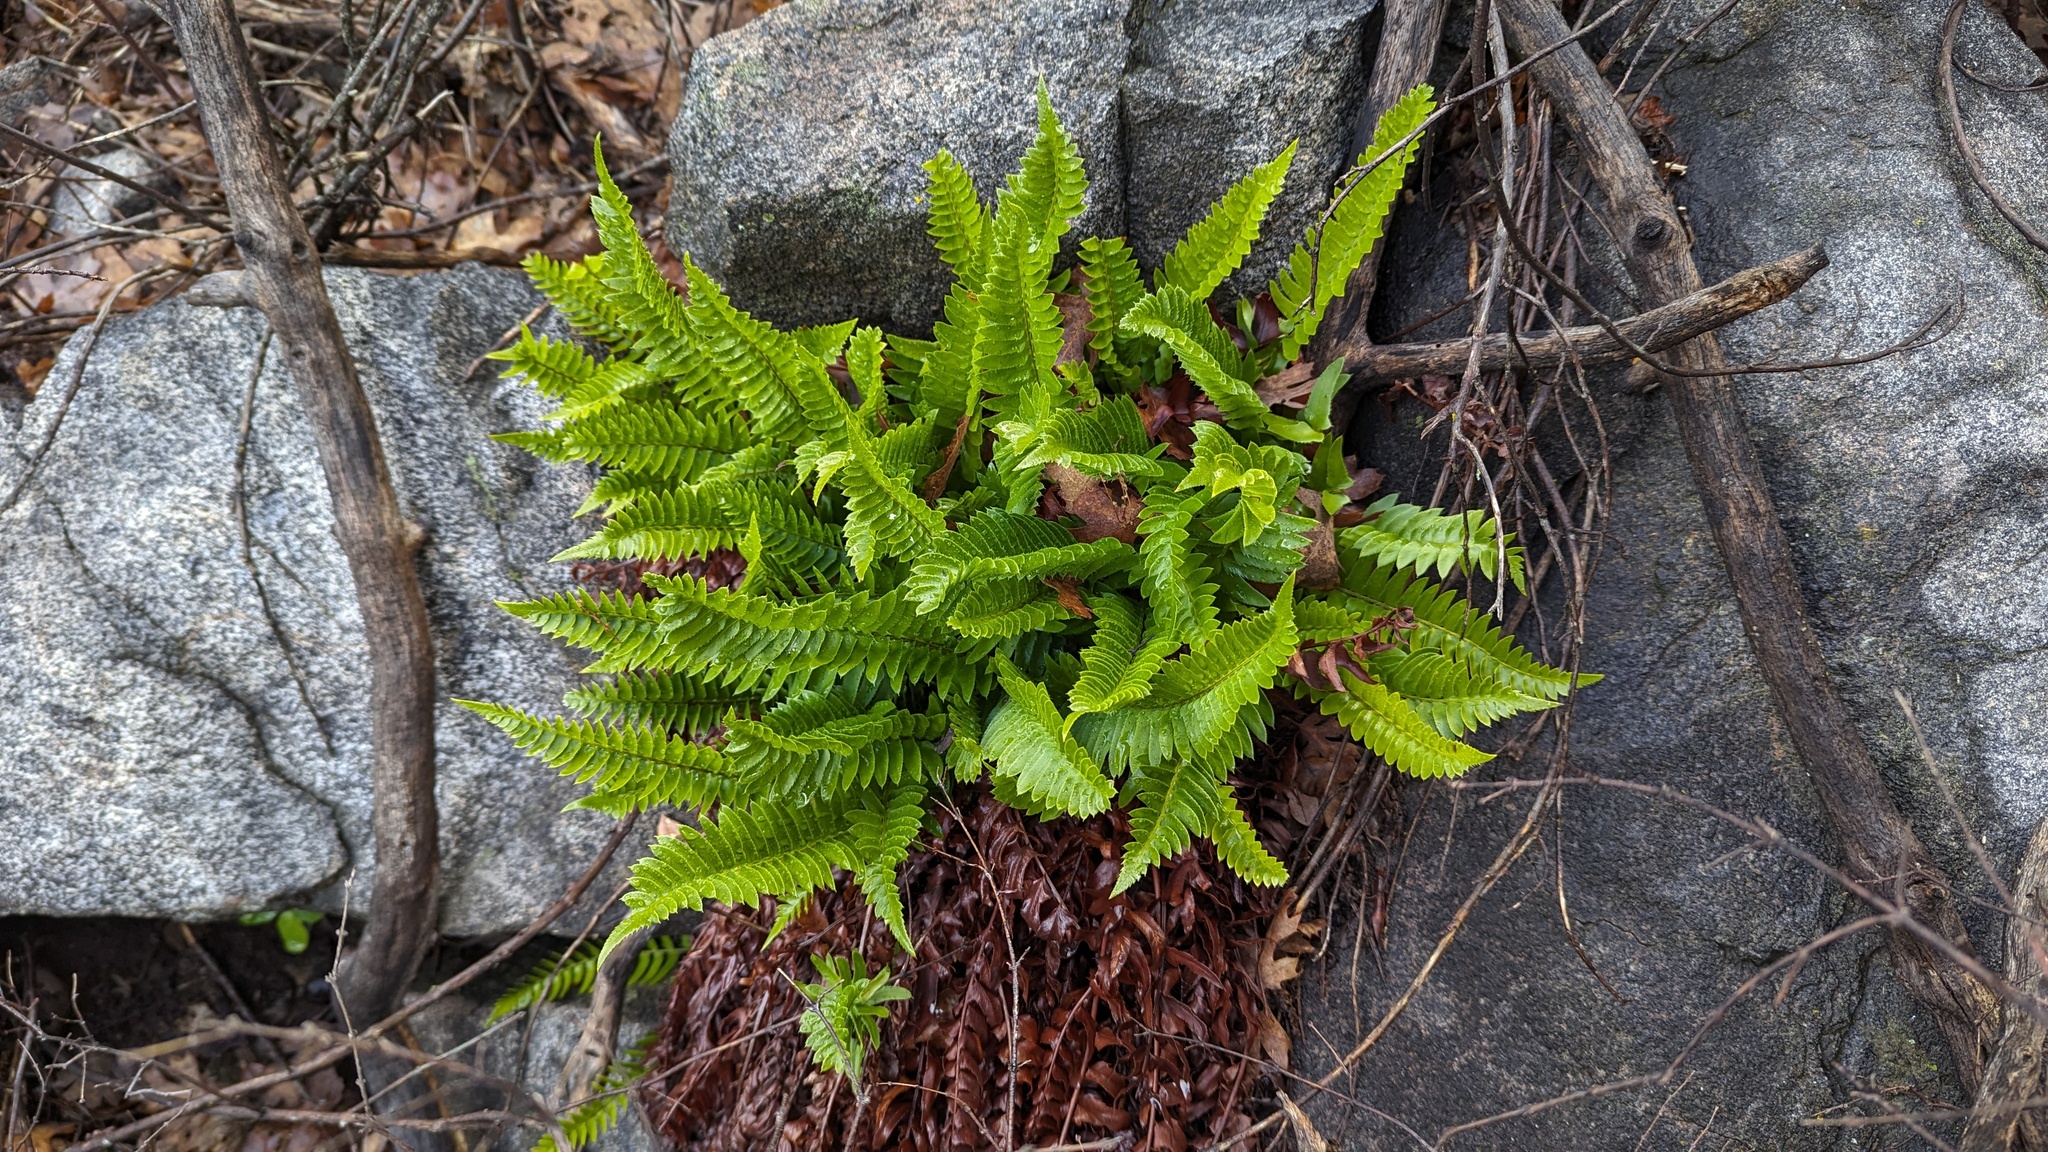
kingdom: Plantae
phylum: Tracheophyta
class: Polypodiopsida
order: Polypodiales
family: Dryopteridaceae
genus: Polystichum
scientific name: Polystichum imbricans
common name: Dwarf western sword fern
